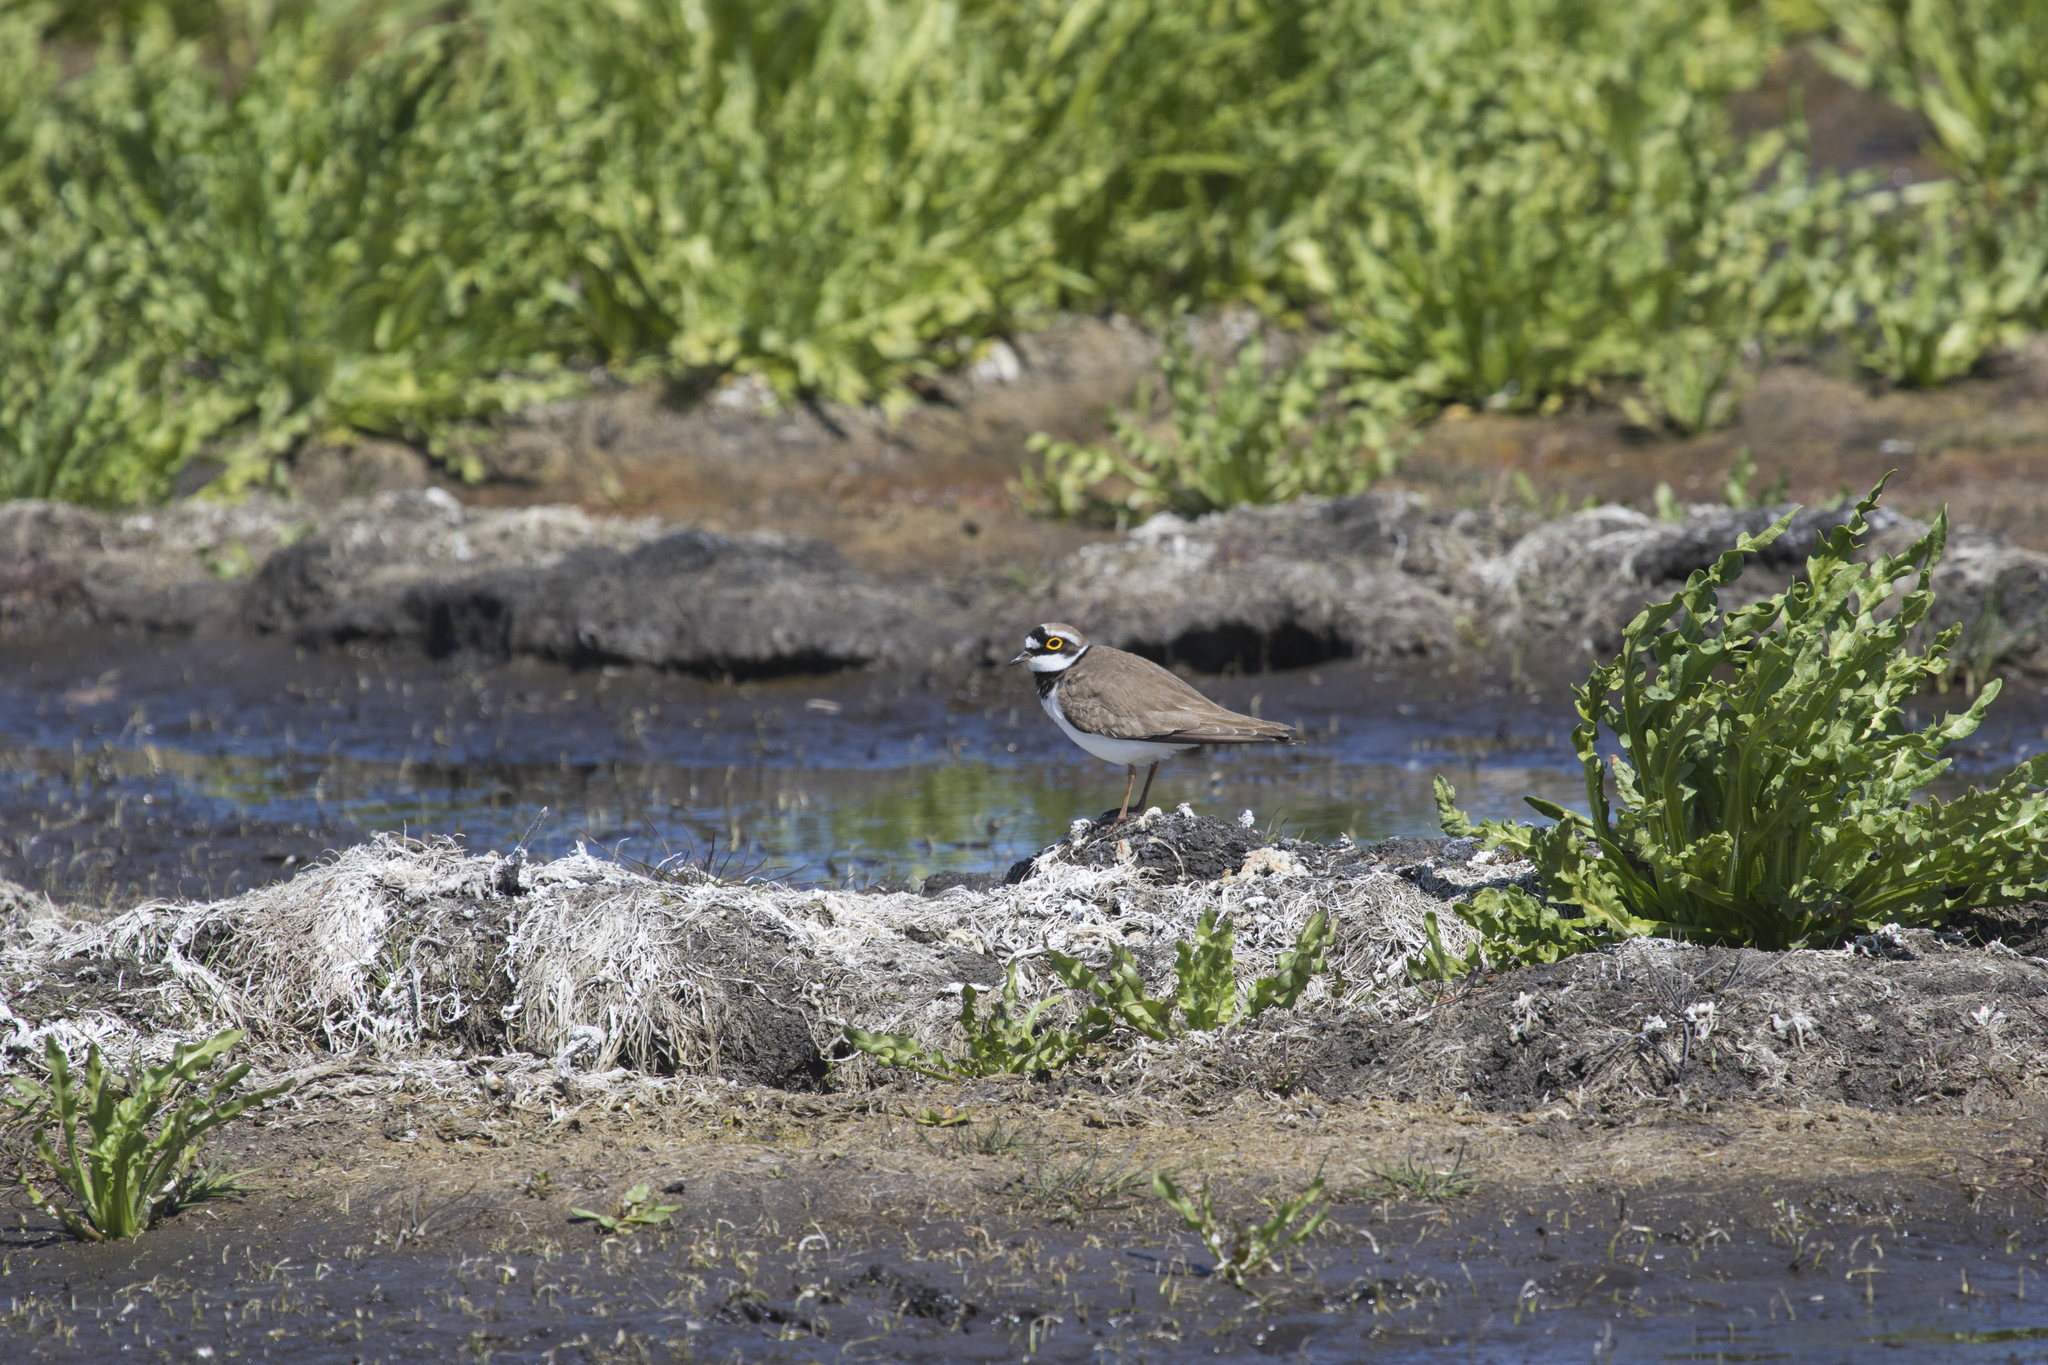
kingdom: Animalia
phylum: Chordata
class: Aves
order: Charadriiformes
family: Charadriidae
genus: Charadrius
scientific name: Charadrius dubius
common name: Little ringed plover
